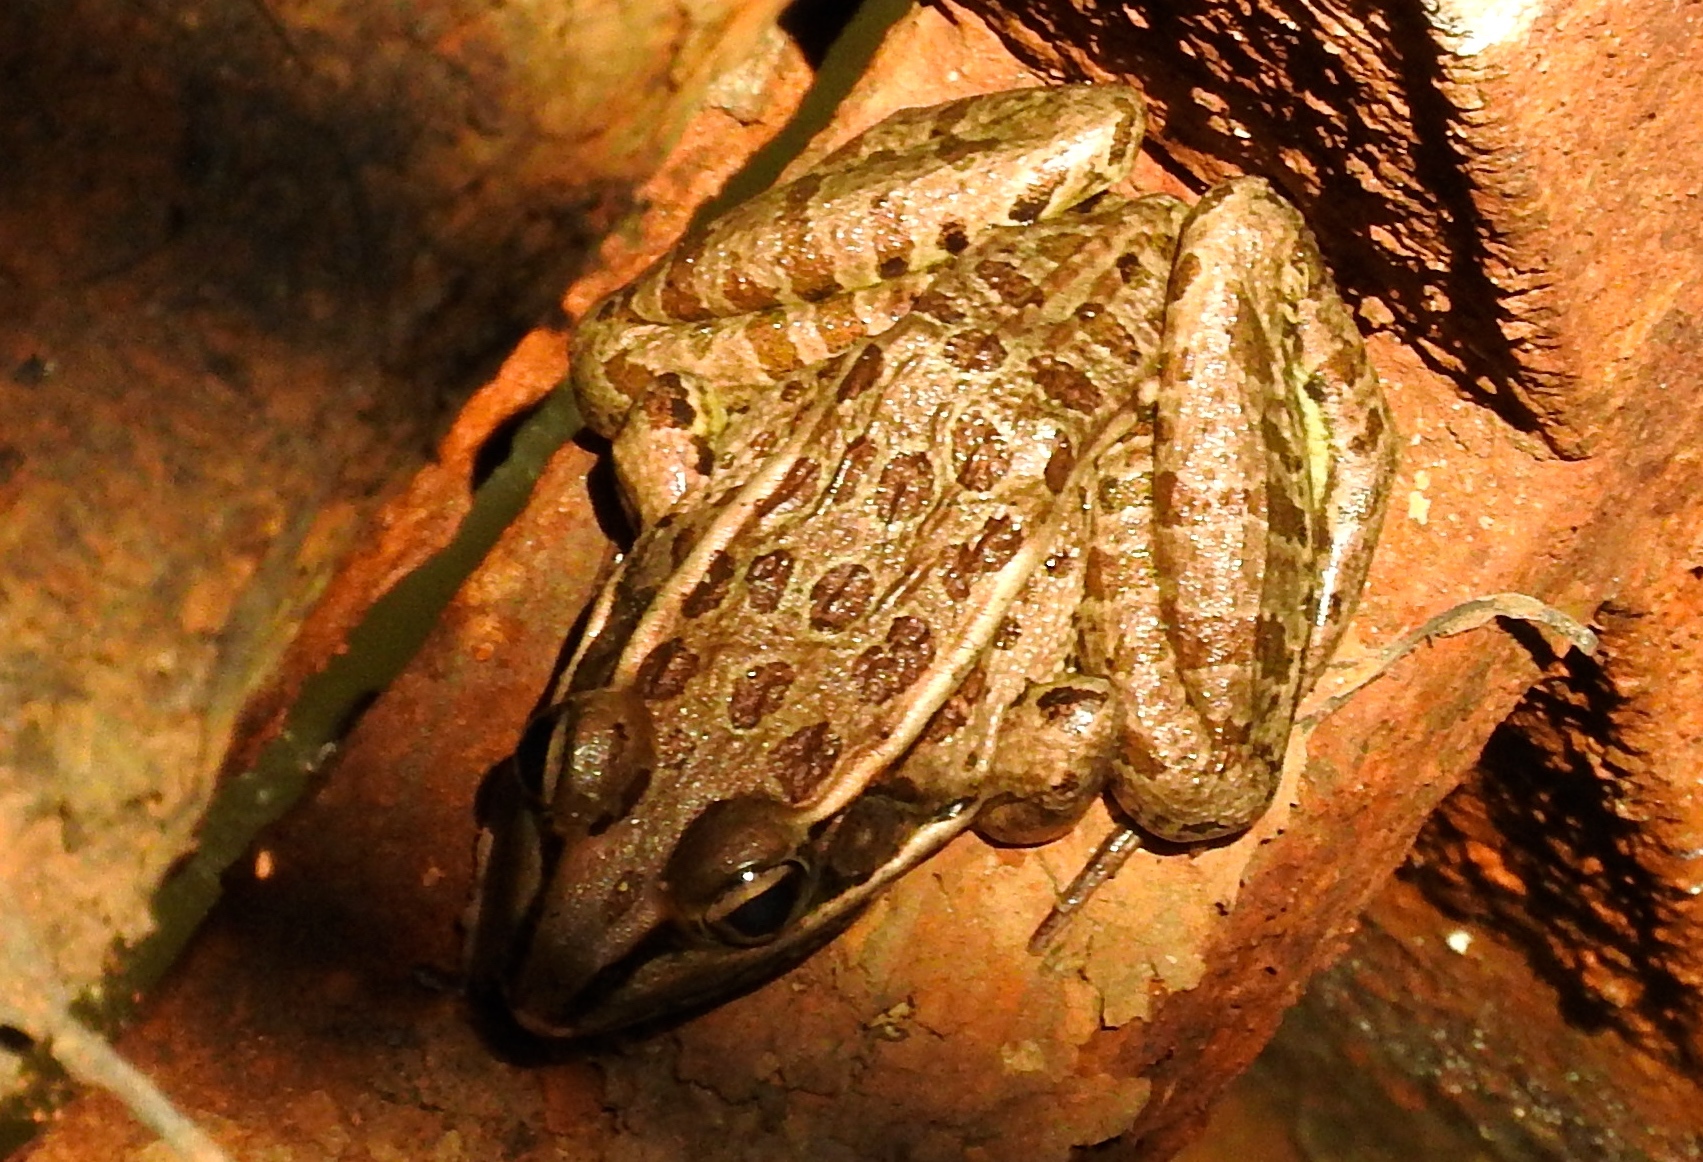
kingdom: Animalia
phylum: Chordata
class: Amphibia
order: Anura
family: Ranidae
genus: Lithobates
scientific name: Lithobates magnaocularis
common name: Northwest mexico leopard frog
